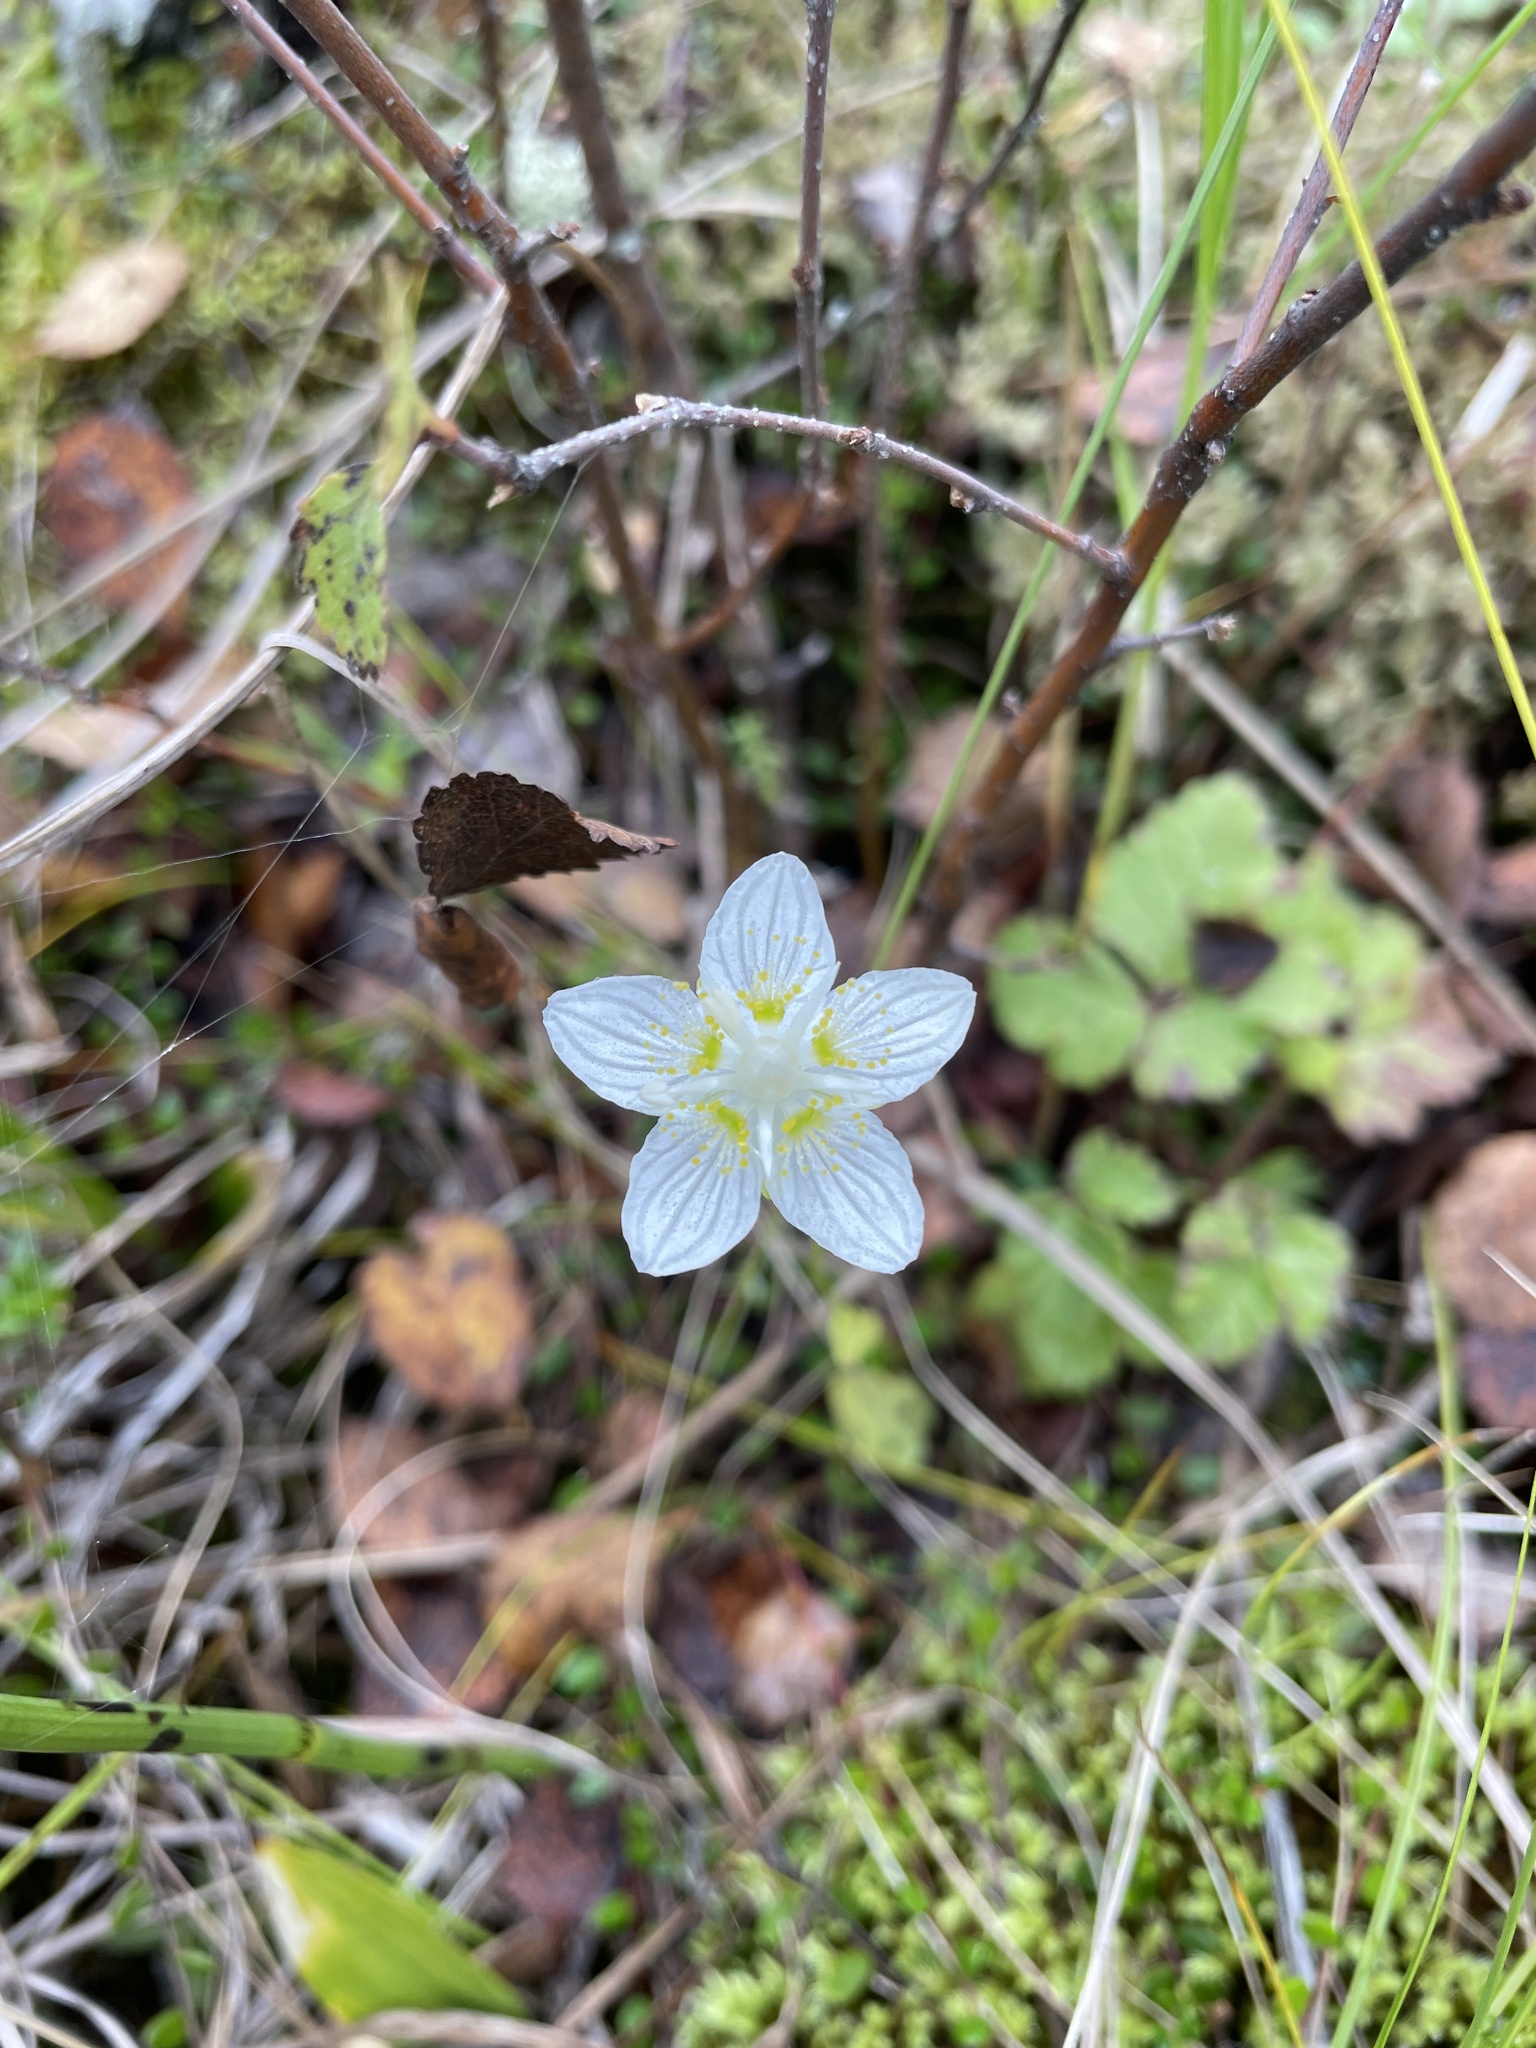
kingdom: Plantae
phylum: Tracheophyta
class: Magnoliopsida
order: Celastrales
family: Parnassiaceae
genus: Parnassia
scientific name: Parnassia palustris
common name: Grass-of-parnassus
